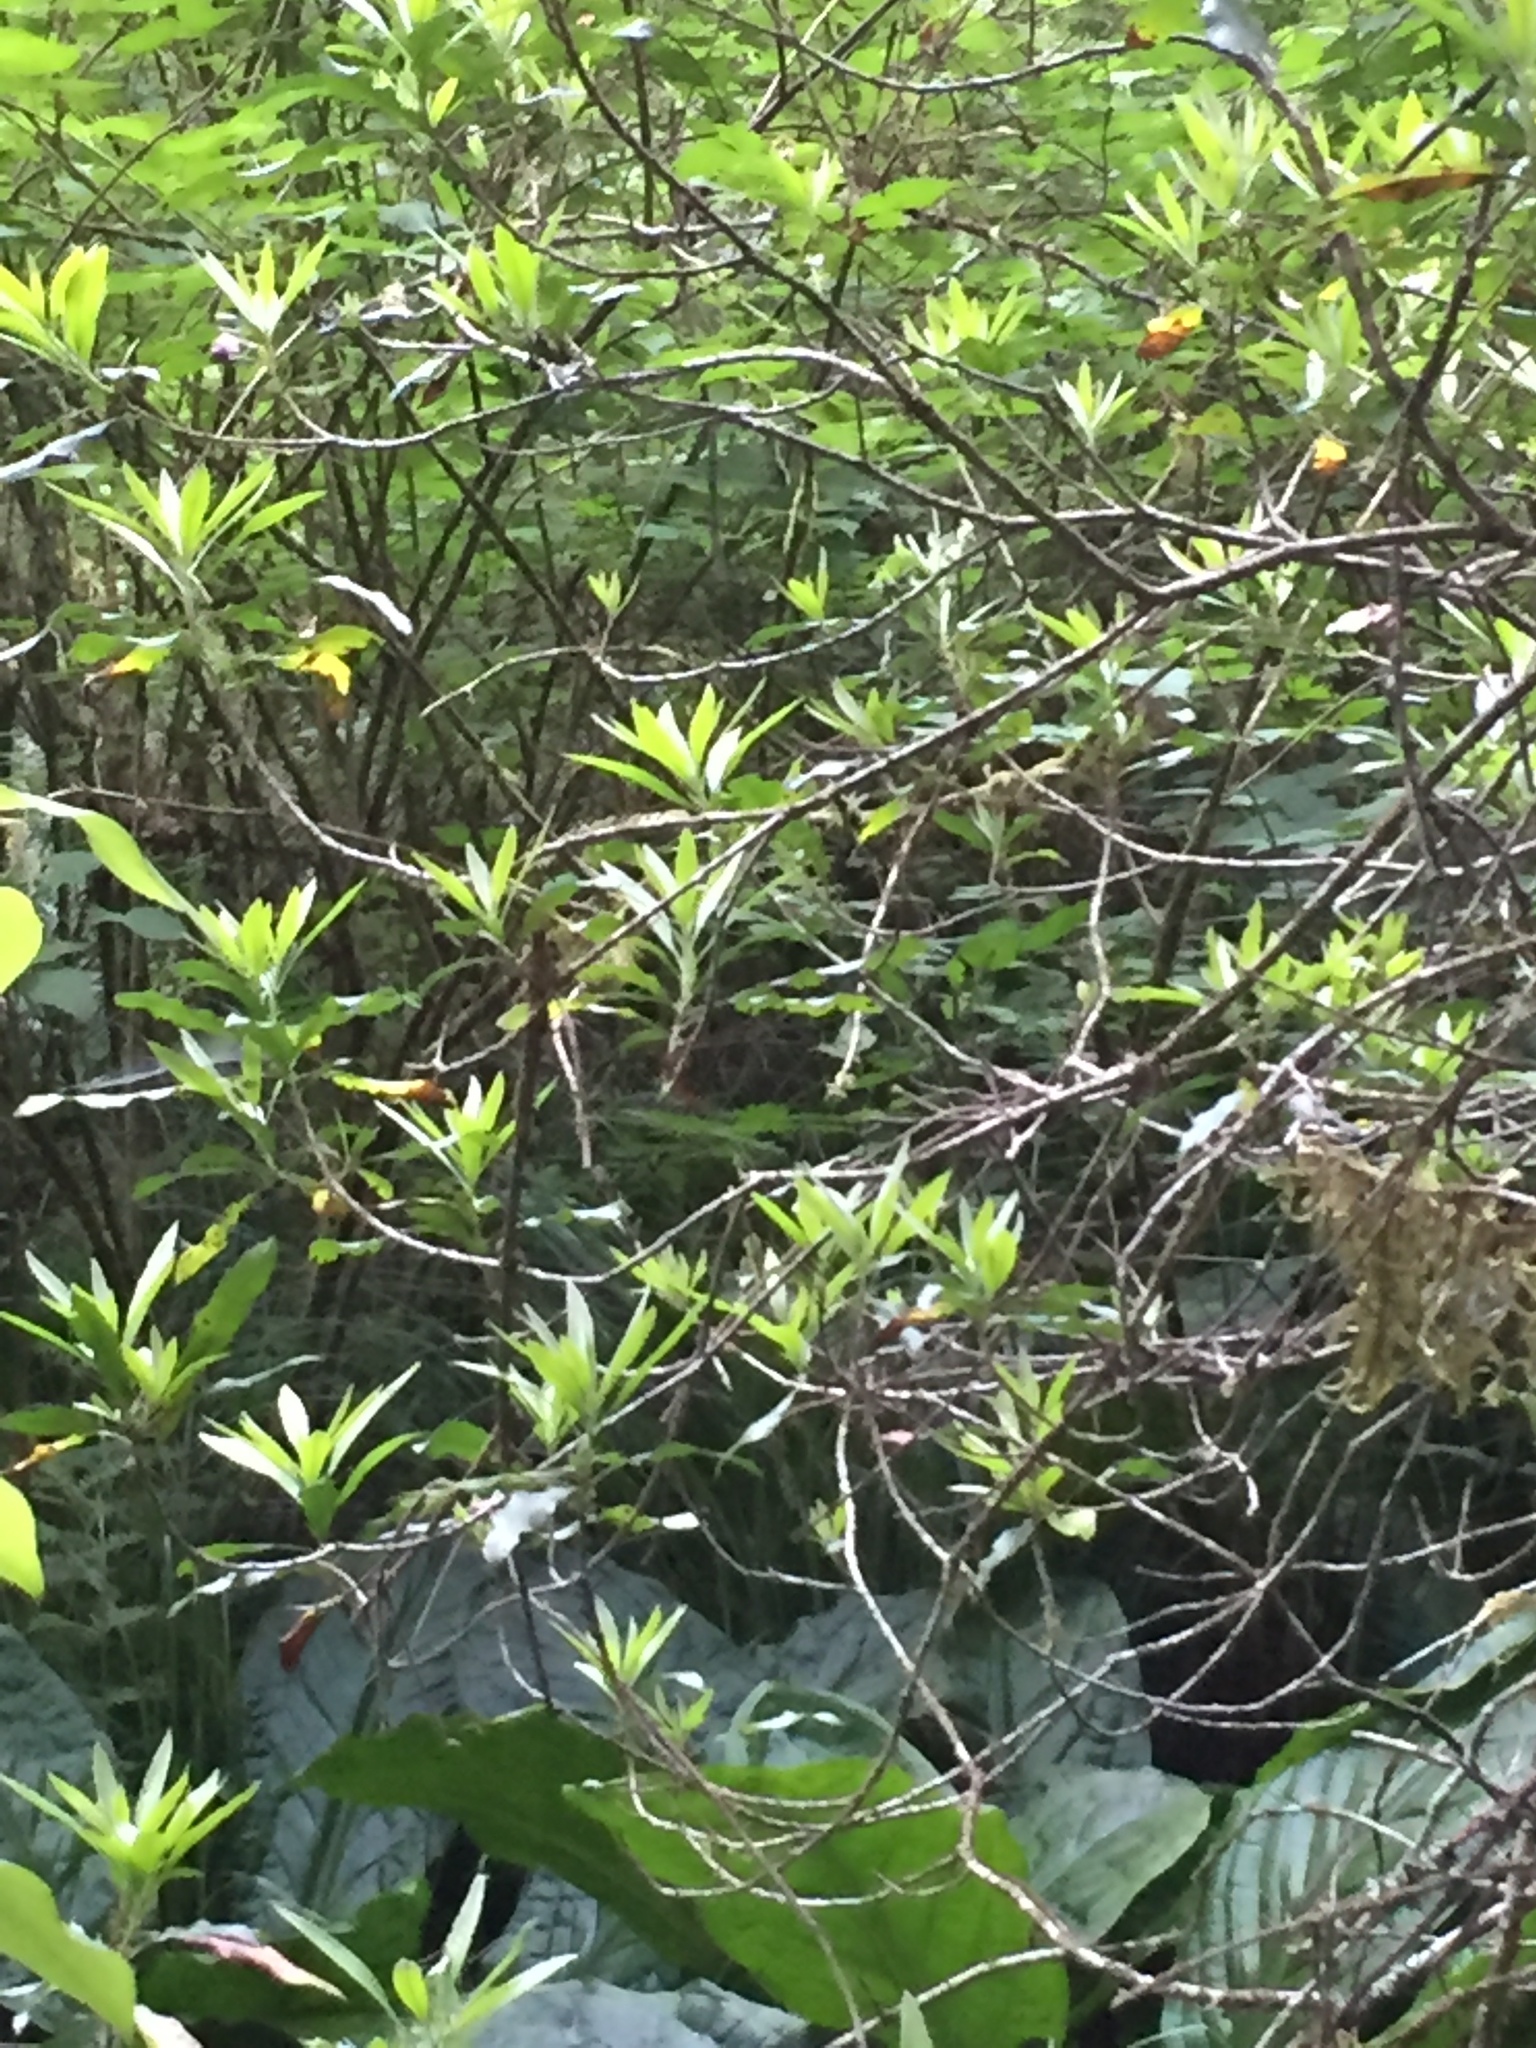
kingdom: Plantae
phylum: Tracheophyta
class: Magnoliopsida
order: Ericales
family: Ericaceae
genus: Rhododendron
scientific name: Rhododendron occidentale
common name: Western azalea
